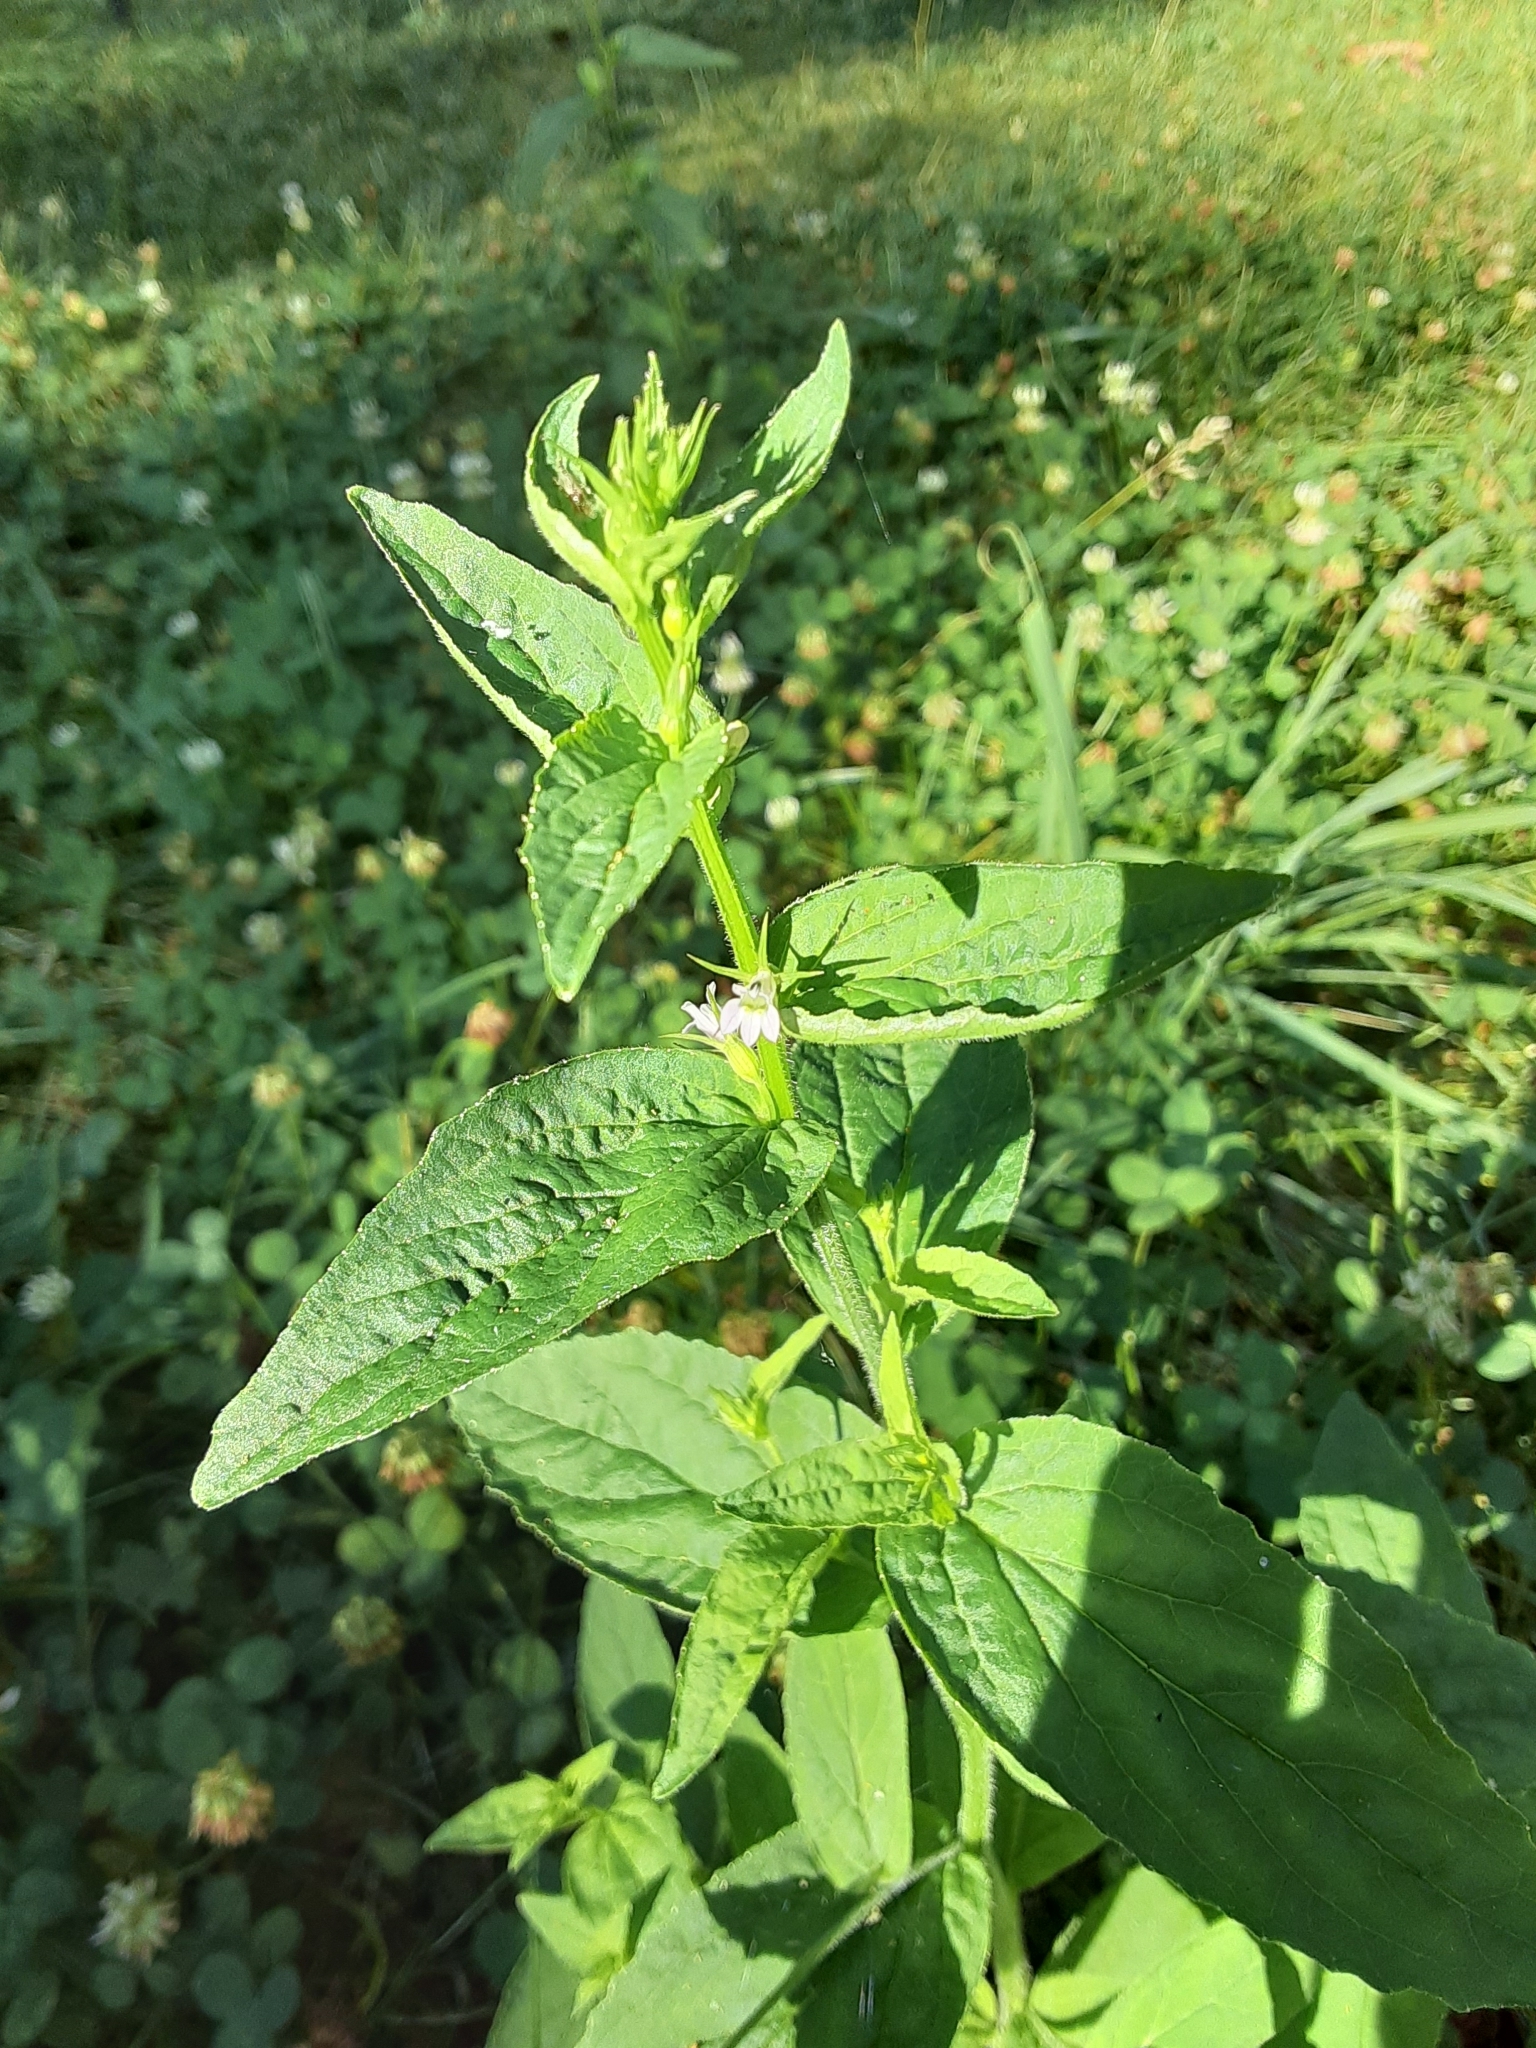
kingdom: Plantae
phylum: Tracheophyta
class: Magnoliopsida
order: Asterales
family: Campanulaceae
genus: Lobelia
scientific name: Lobelia inflata
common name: Indian tobacco
